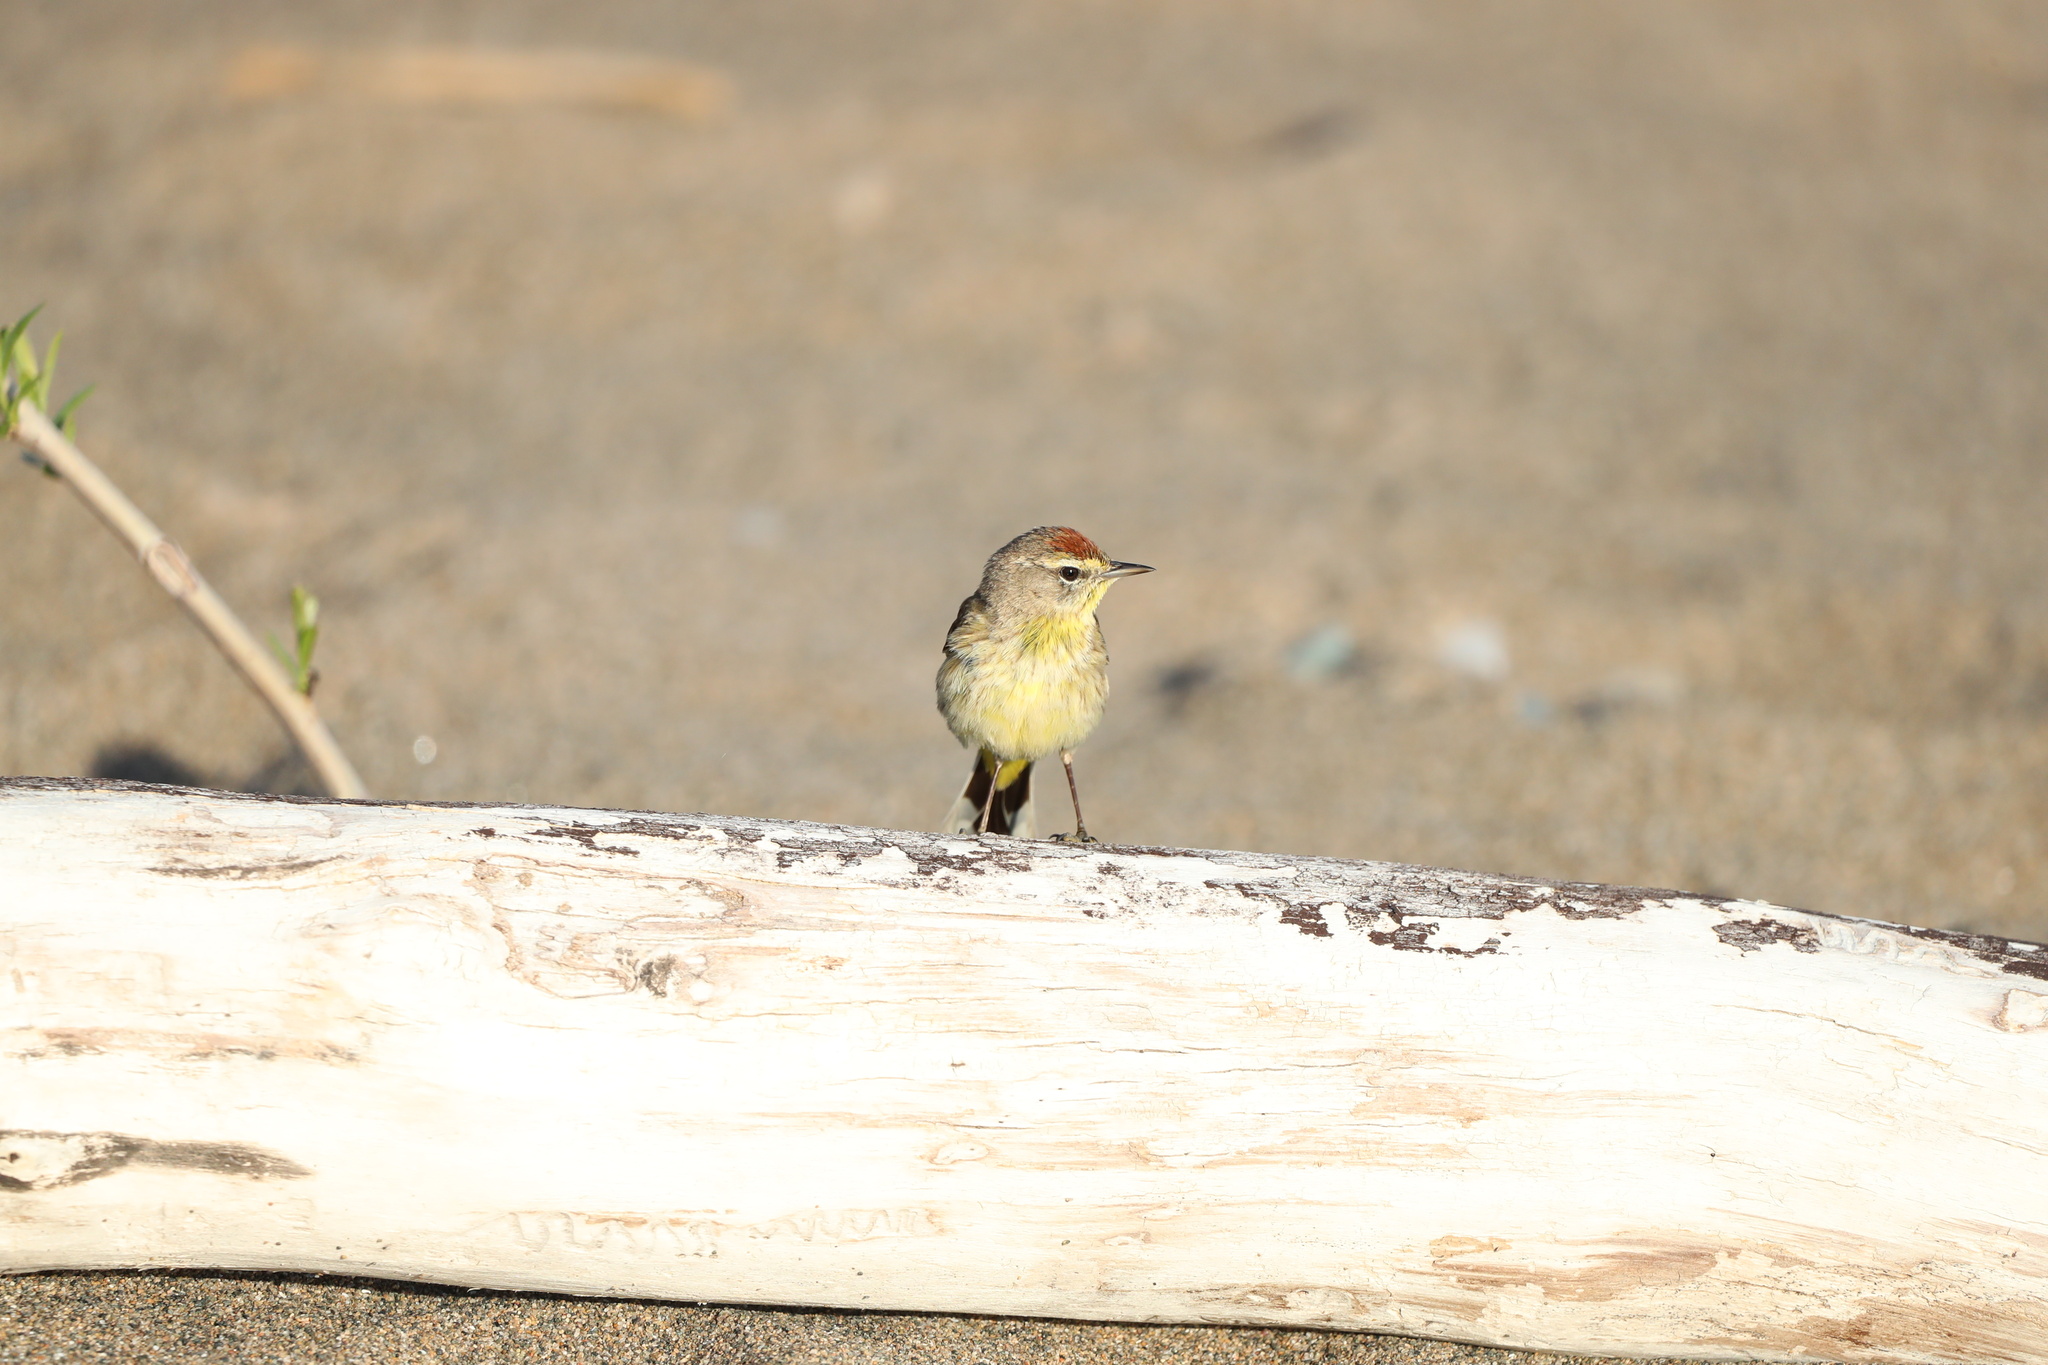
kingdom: Animalia
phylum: Chordata
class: Aves
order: Passeriformes
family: Parulidae
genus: Setophaga
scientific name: Setophaga palmarum
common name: Palm warbler
